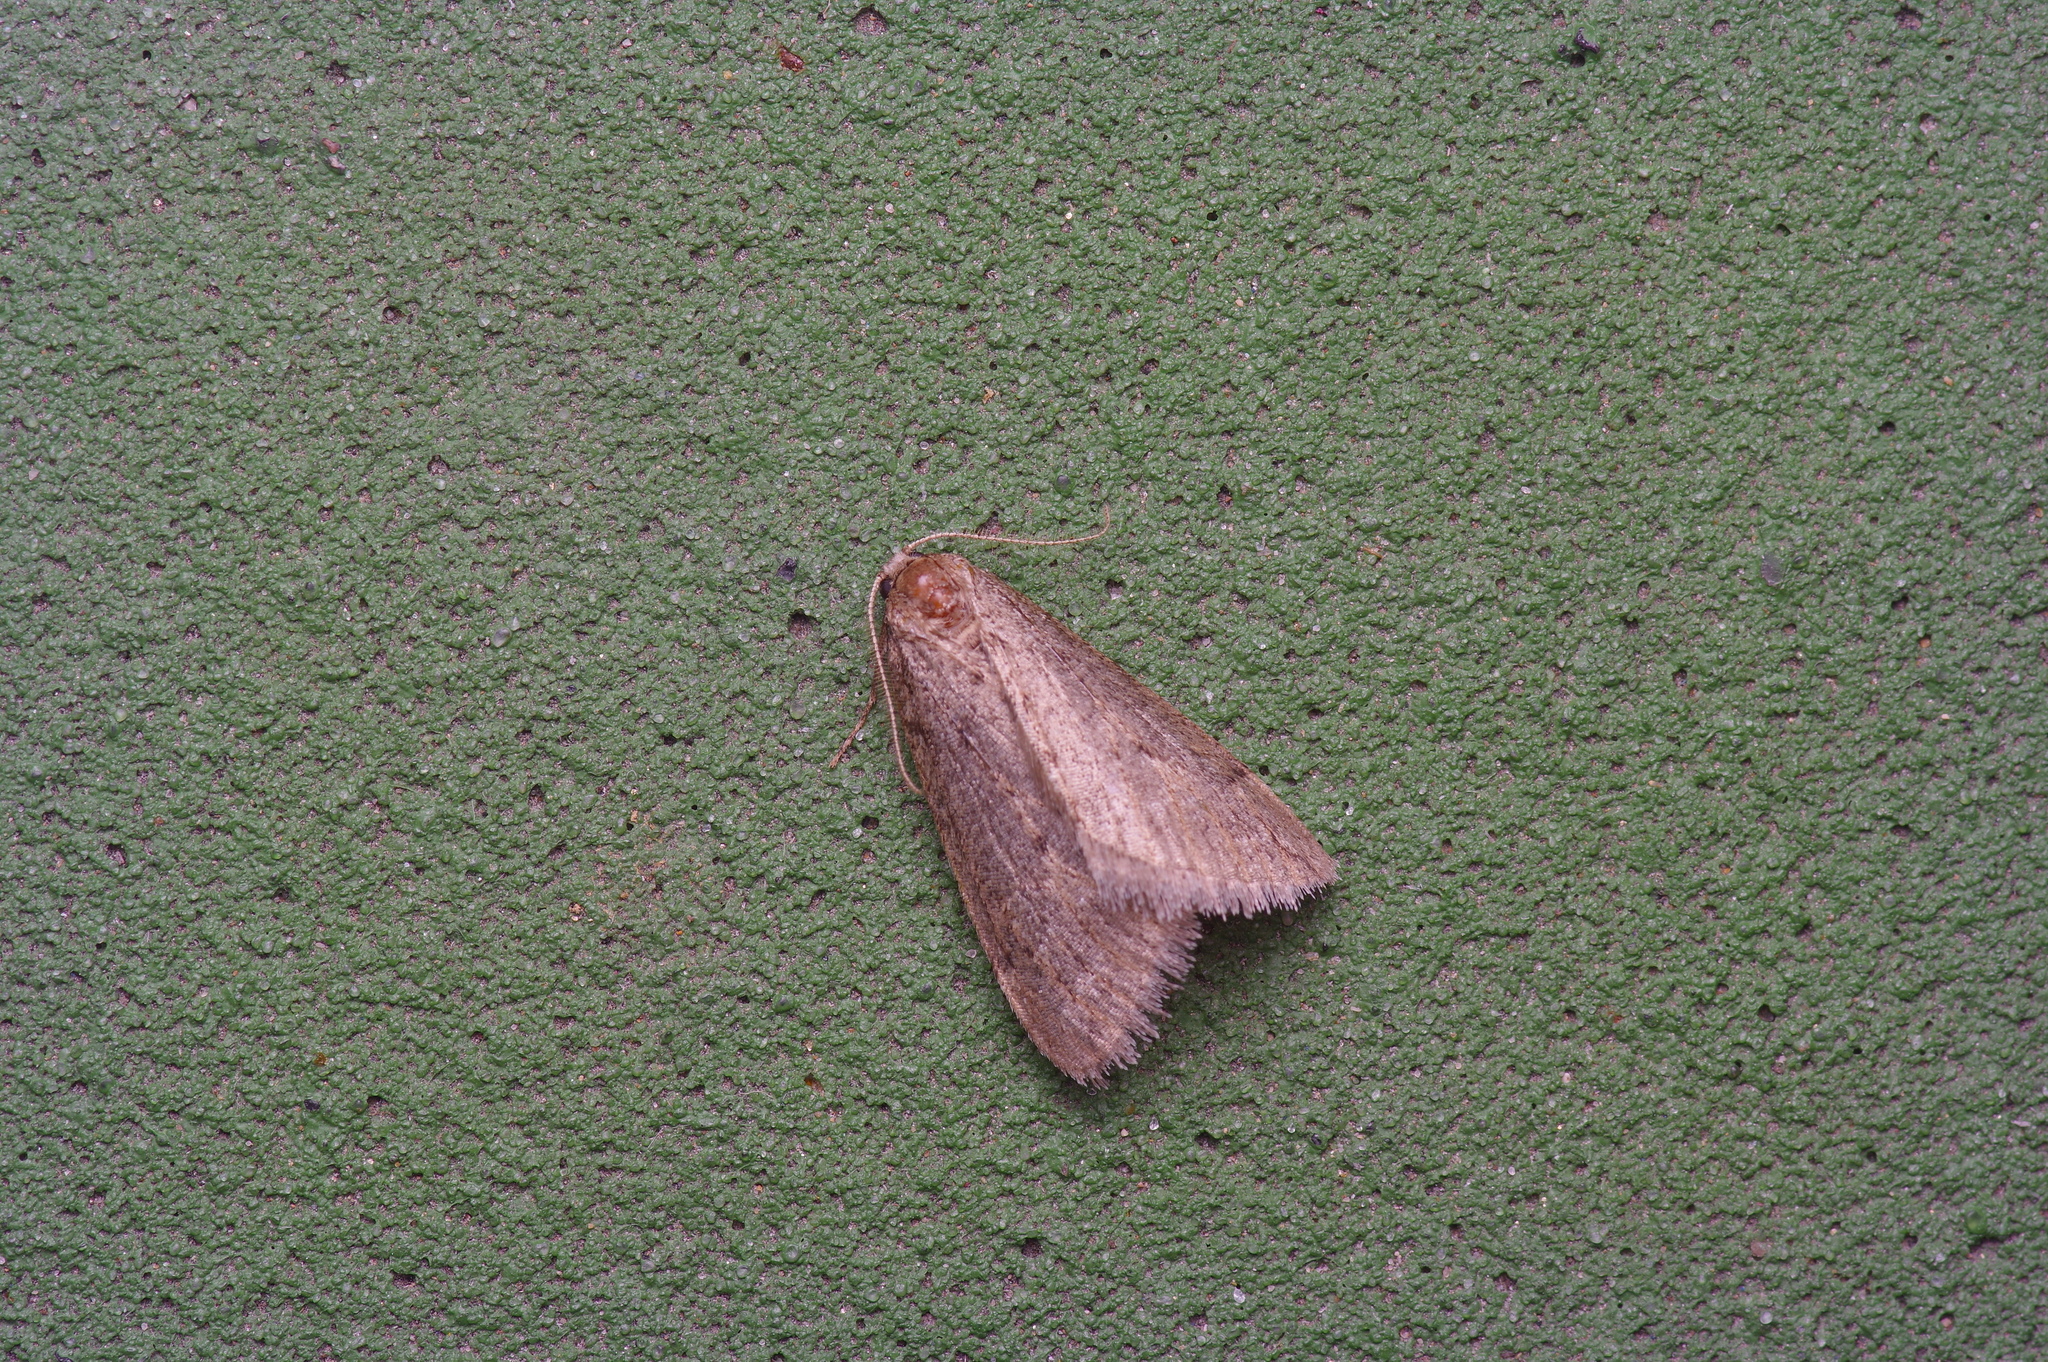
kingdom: Animalia
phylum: Arthropoda
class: Insecta
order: Lepidoptera
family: Geometridae
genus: Paleacrita
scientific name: Paleacrita vernata
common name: Spring cankerworm
